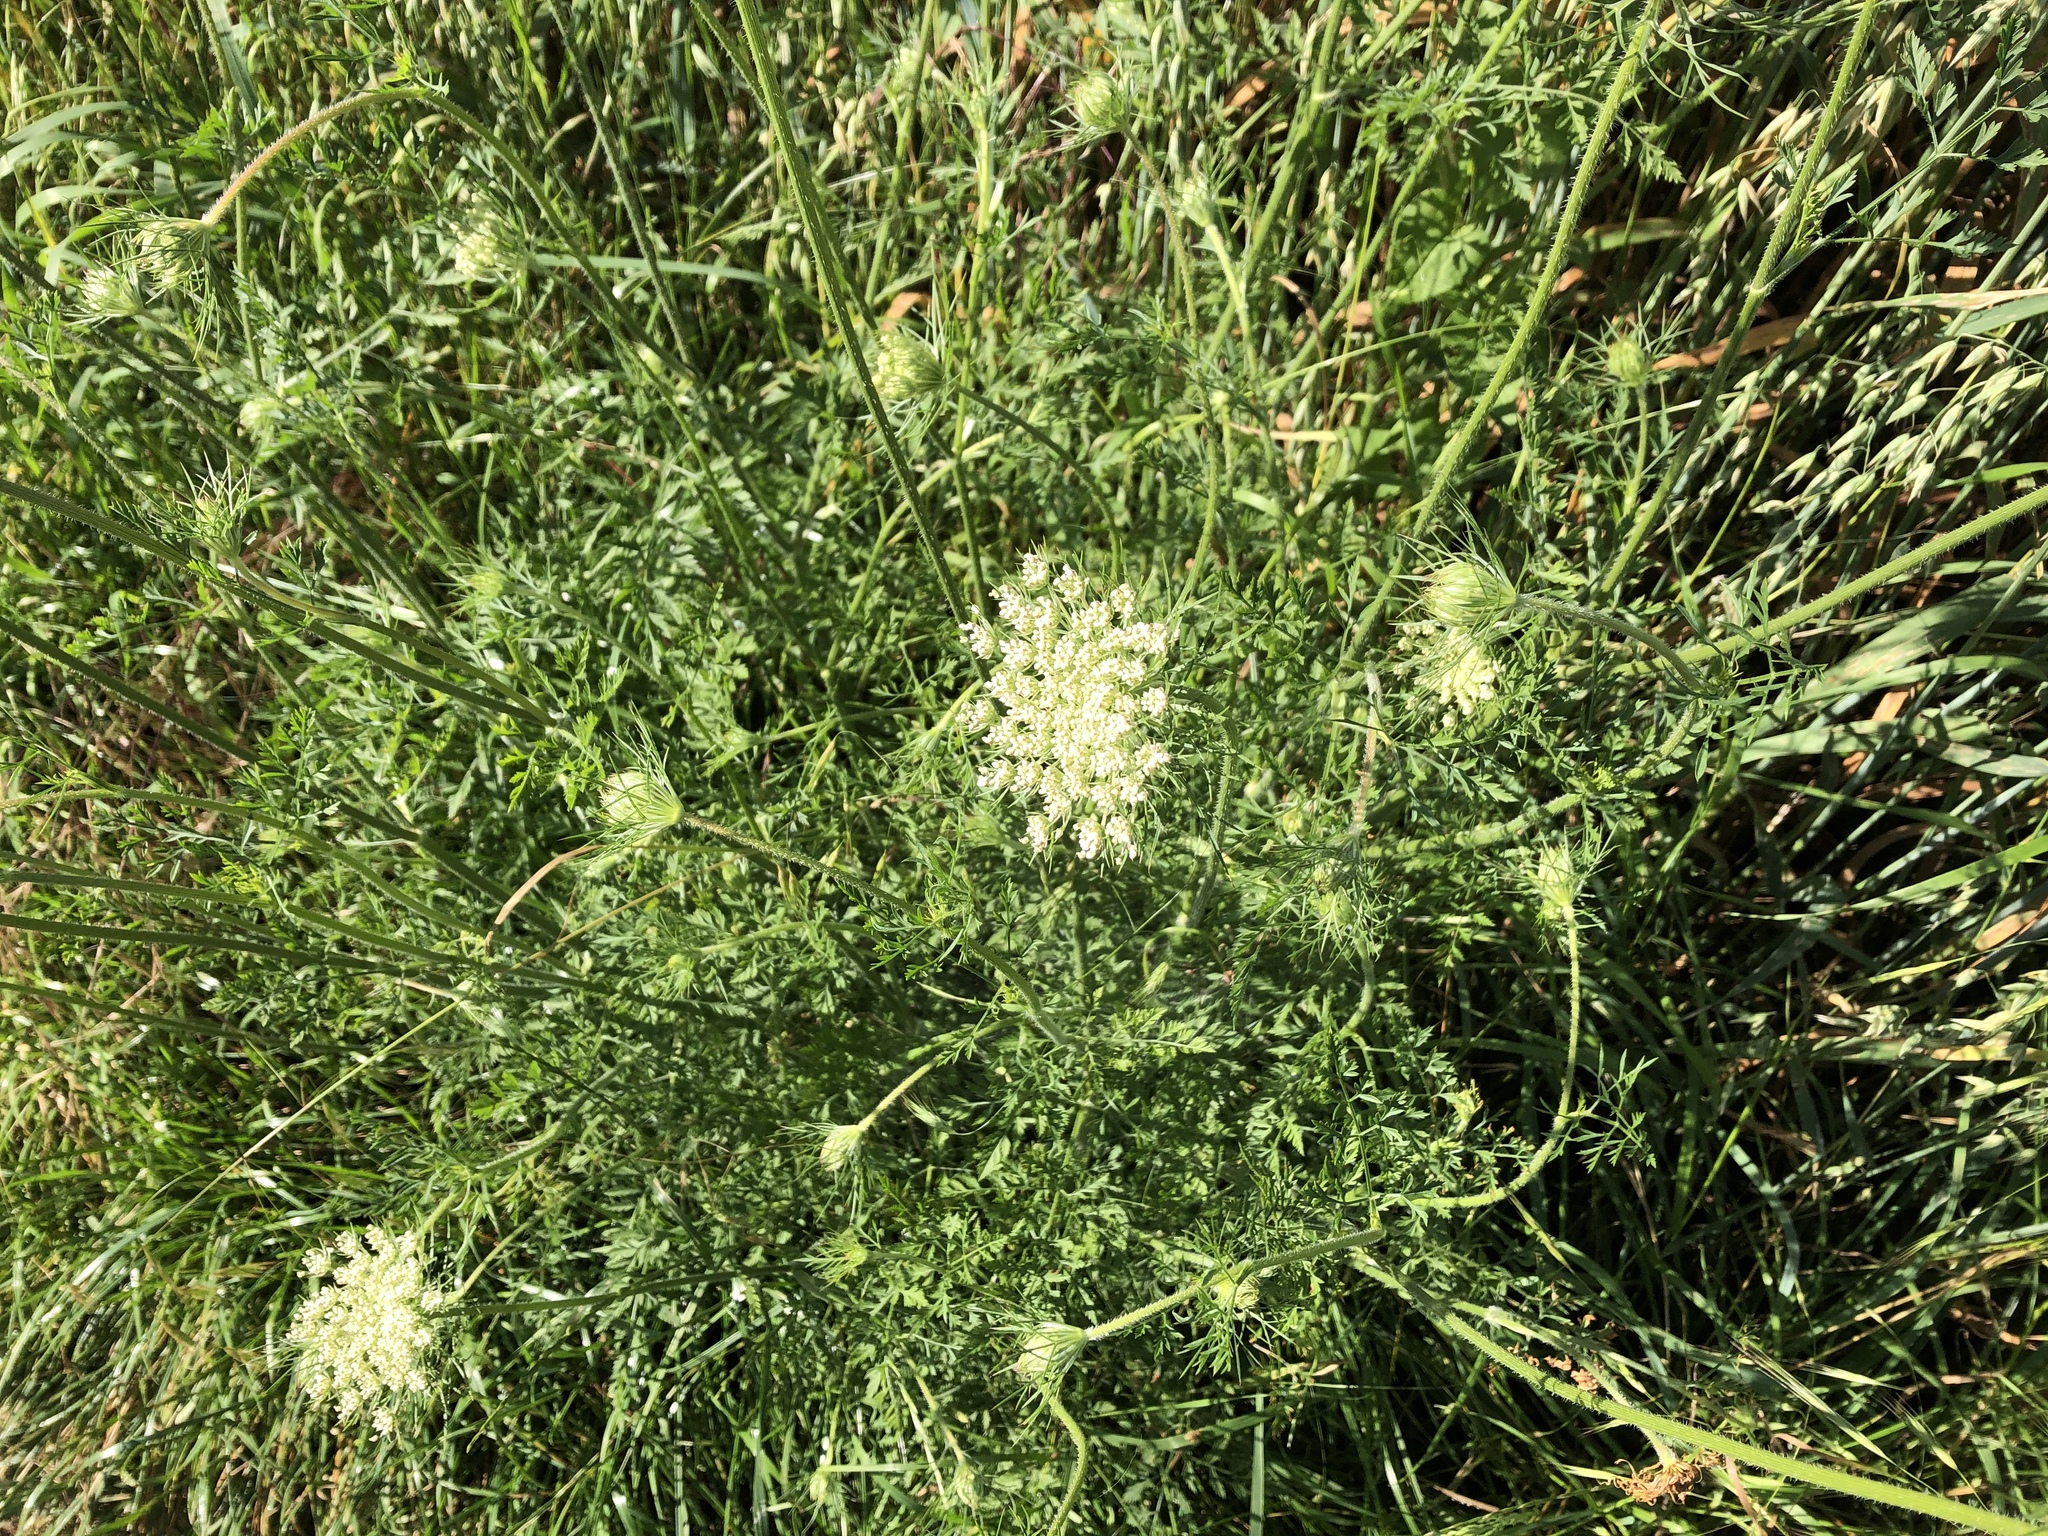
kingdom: Plantae
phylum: Tracheophyta
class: Magnoliopsida
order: Apiales
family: Apiaceae
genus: Daucus
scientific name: Daucus carota
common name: Wild carrot
